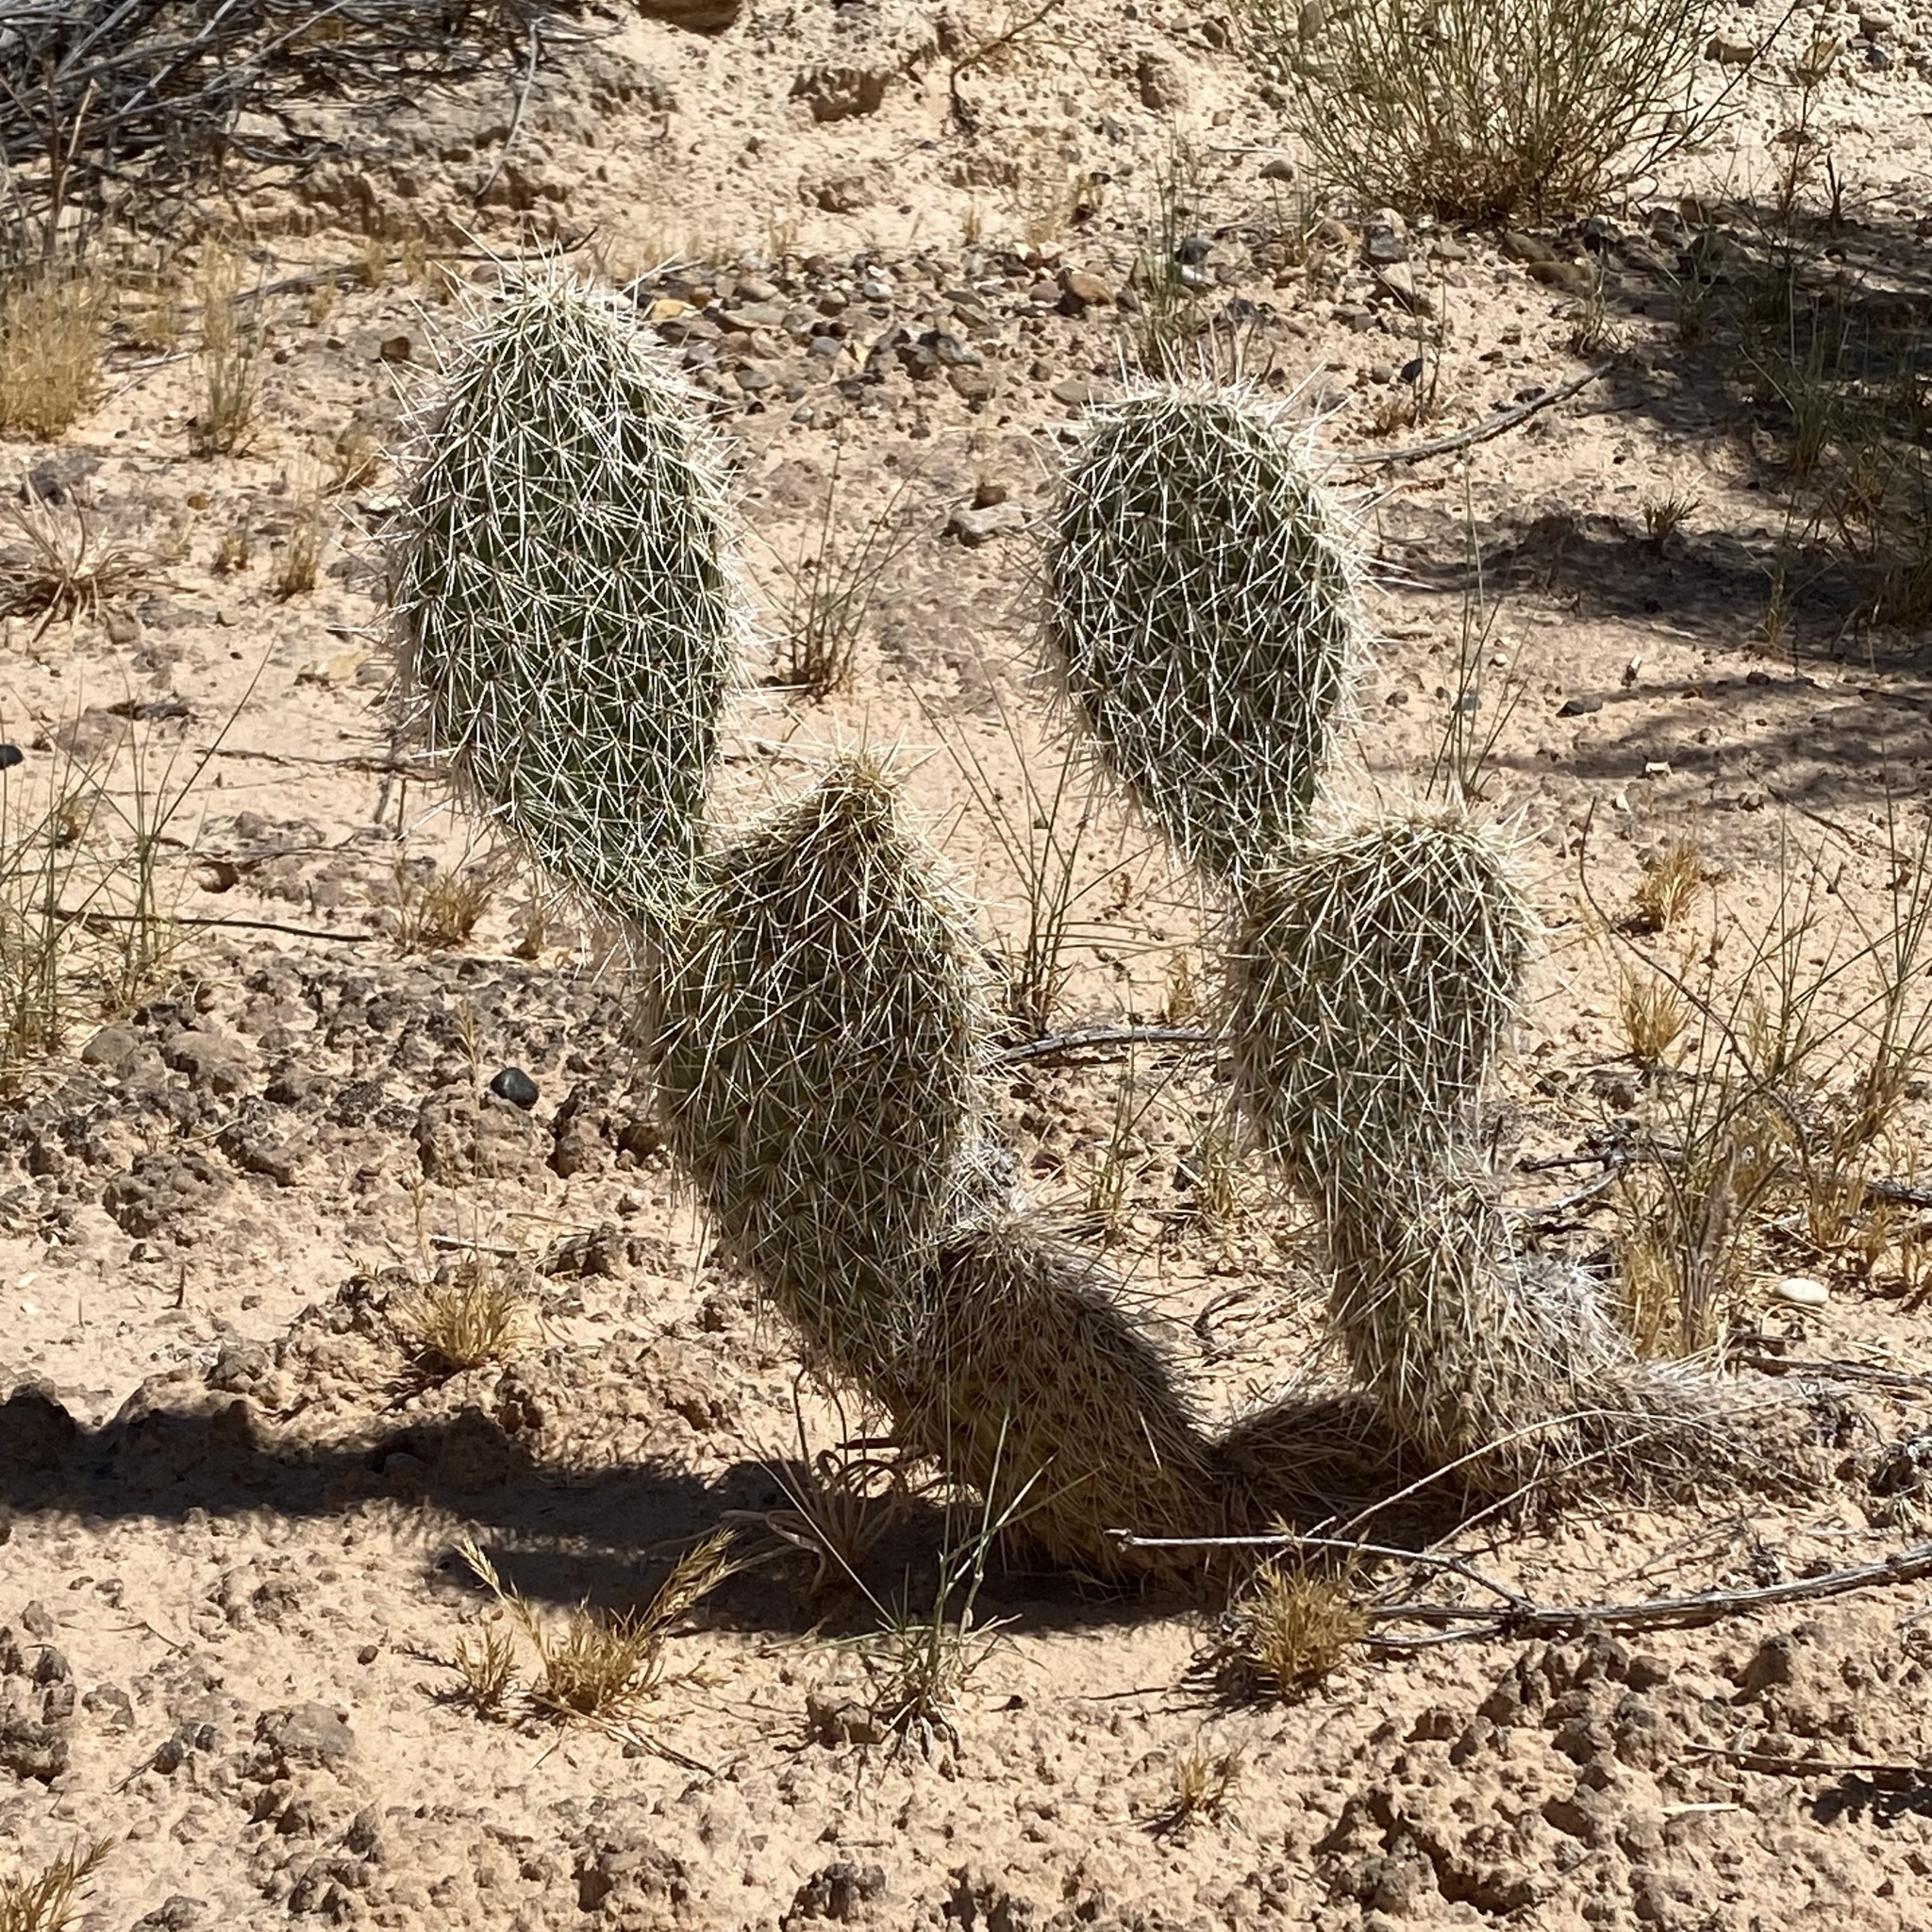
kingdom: Plantae
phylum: Tracheophyta
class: Magnoliopsida
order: Caryophyllales
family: Cactaceae
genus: Opuntia
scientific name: Opuntia polyacantha
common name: Plains prickly-pear
